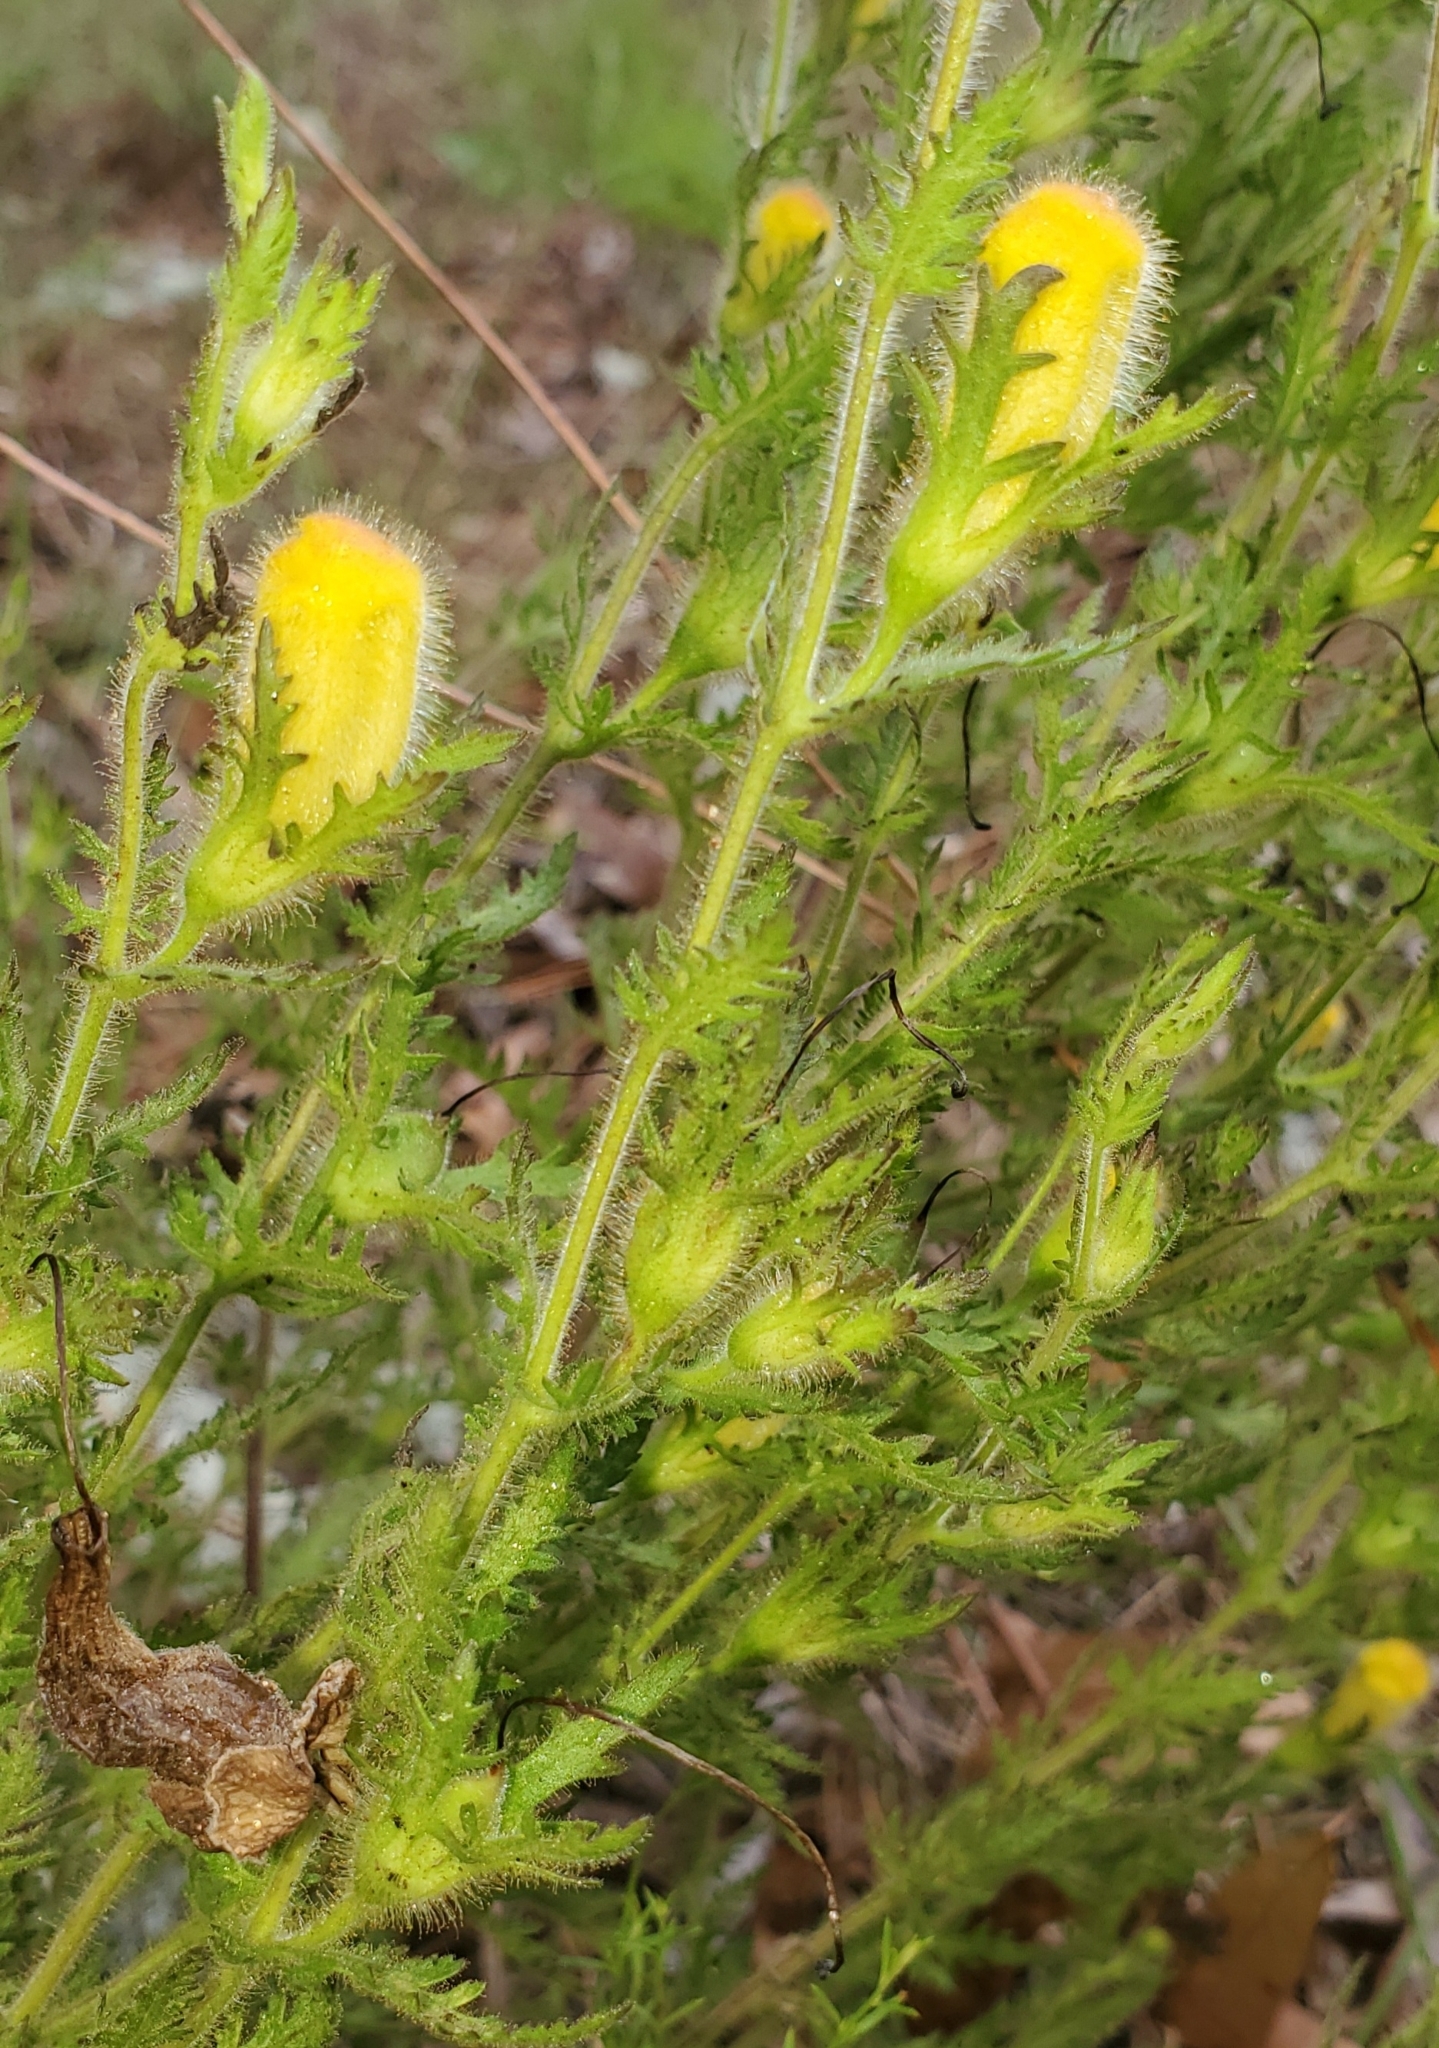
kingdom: Plantae
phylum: Tracheophyta
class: Magnoliopsida
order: Lamiales
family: Orobanchaceae
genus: Aureolaria
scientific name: Aureolaria pectinata
